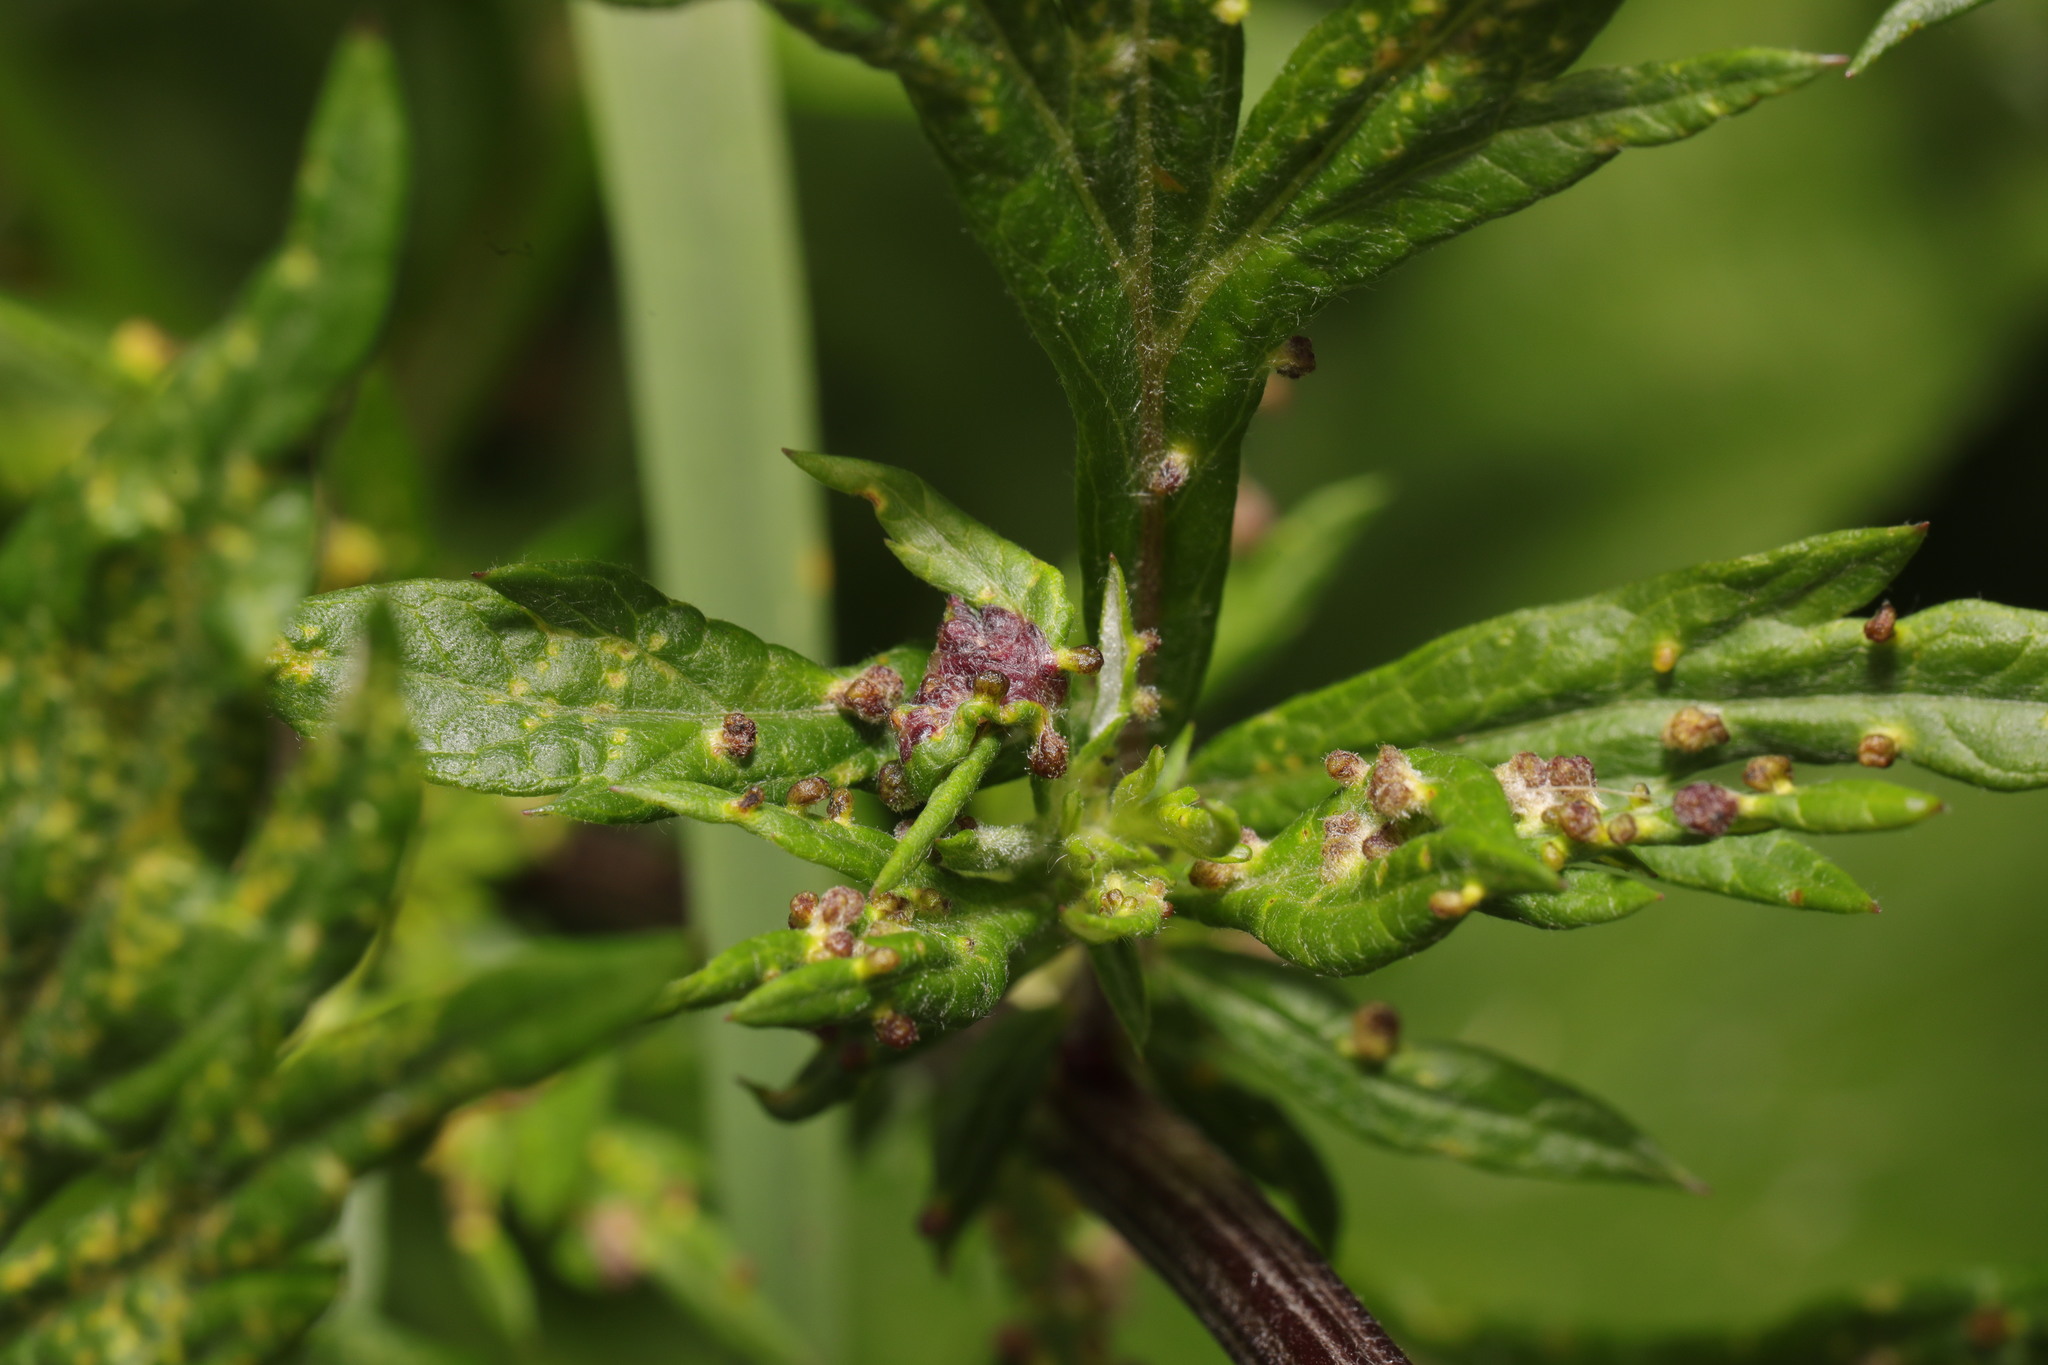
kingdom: Animalia
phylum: Arthropoda
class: Arachnida
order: Trombidiformes
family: Eriophyidae
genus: Aceria
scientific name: Aceria artemisiae
